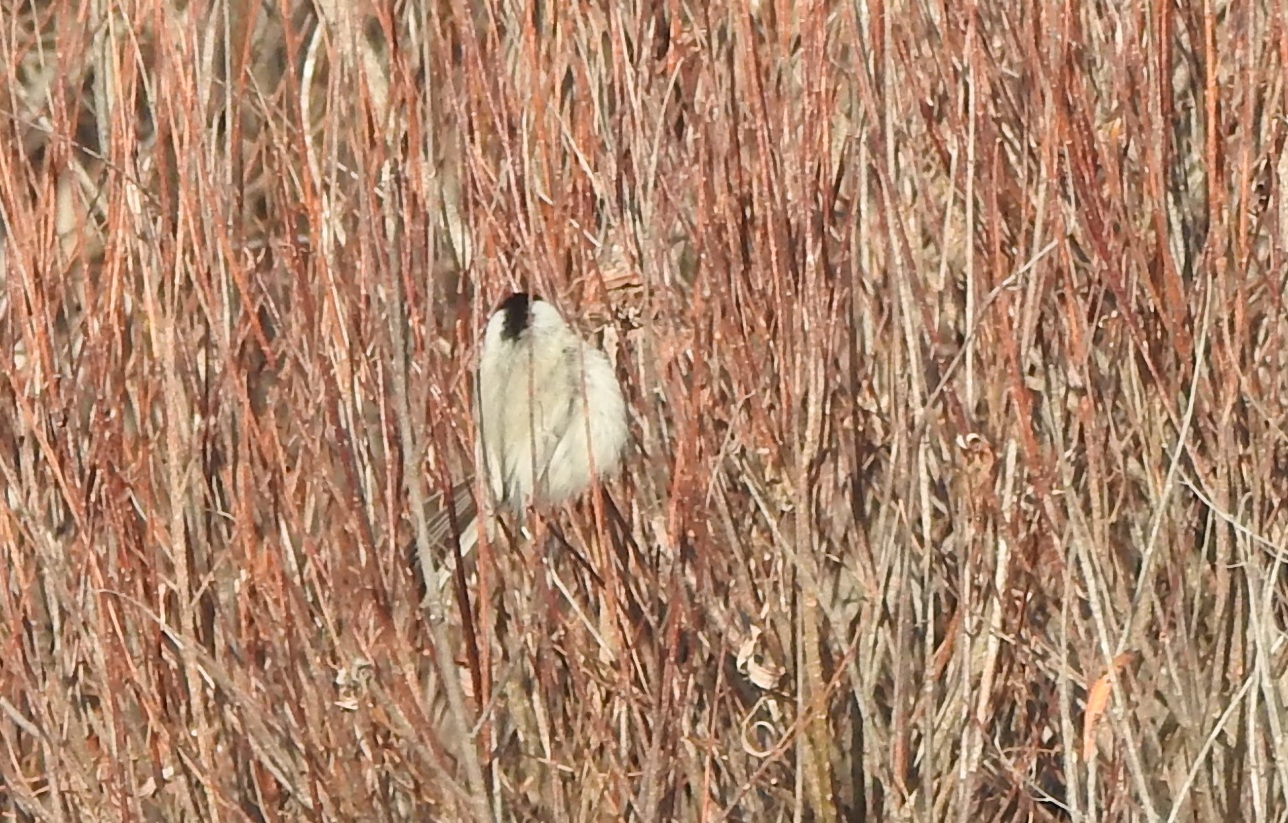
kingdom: Animalia
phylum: Chordata
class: Aves
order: Passeriformes
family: Paridae
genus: Poecile
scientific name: Poecile montanus
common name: Willow tit
